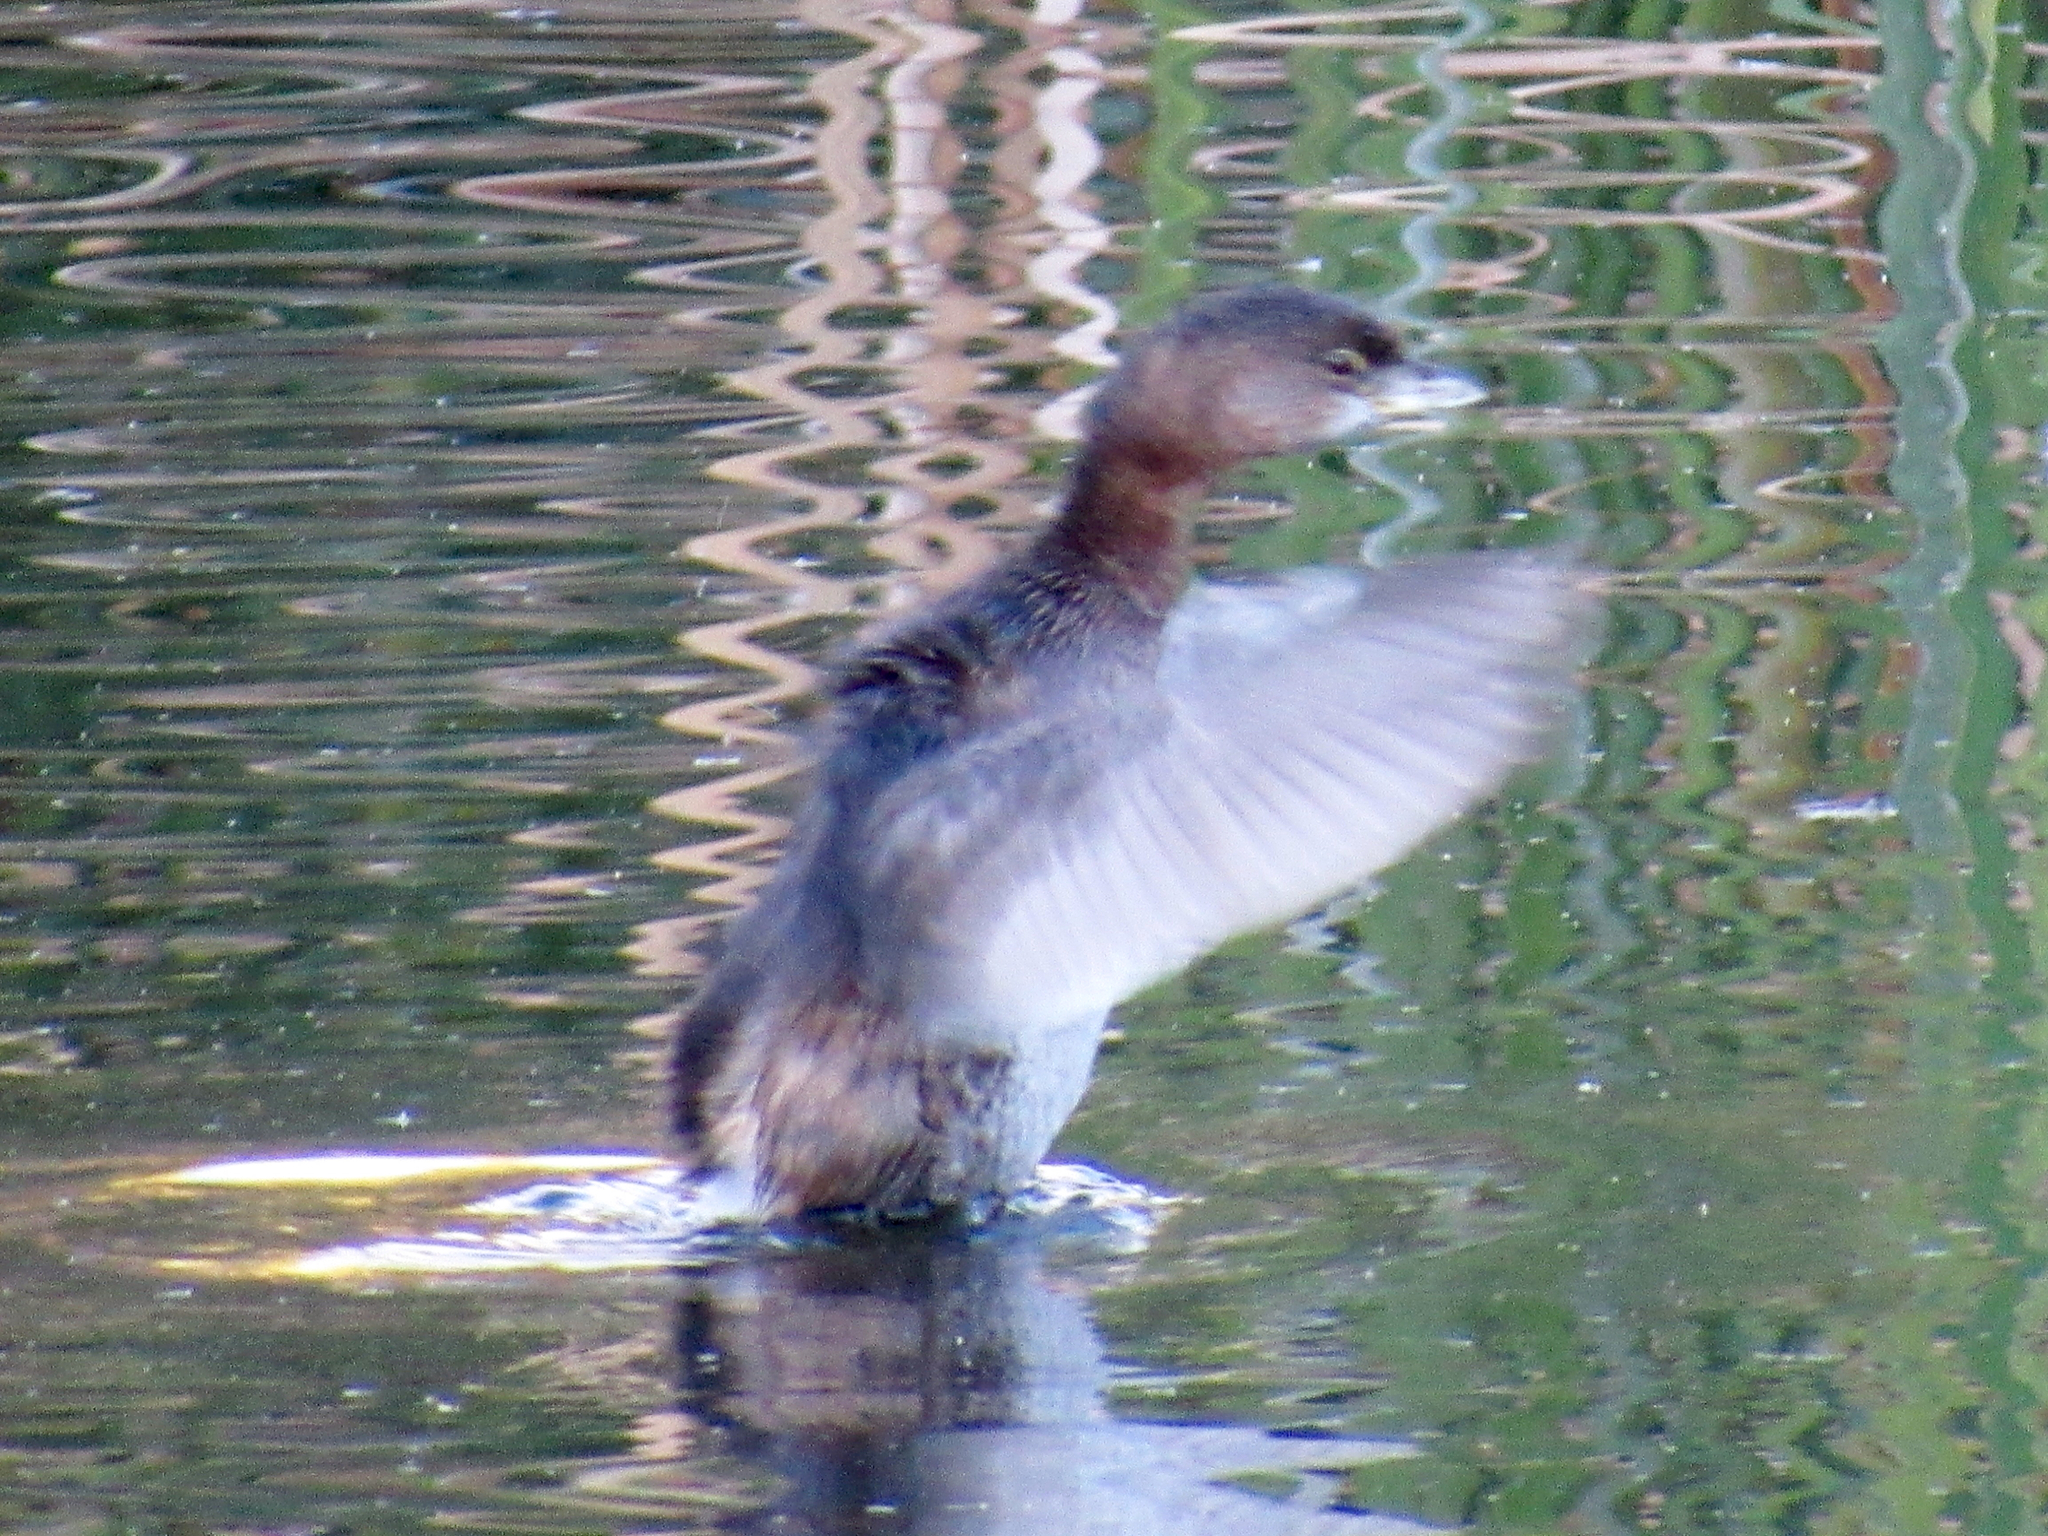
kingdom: Animalia
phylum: Chordata
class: Aves
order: Podicipediformes
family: Podicipedidae
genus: Podilymbus
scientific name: Podilymbus podiceps
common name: Pied-billed grebe
